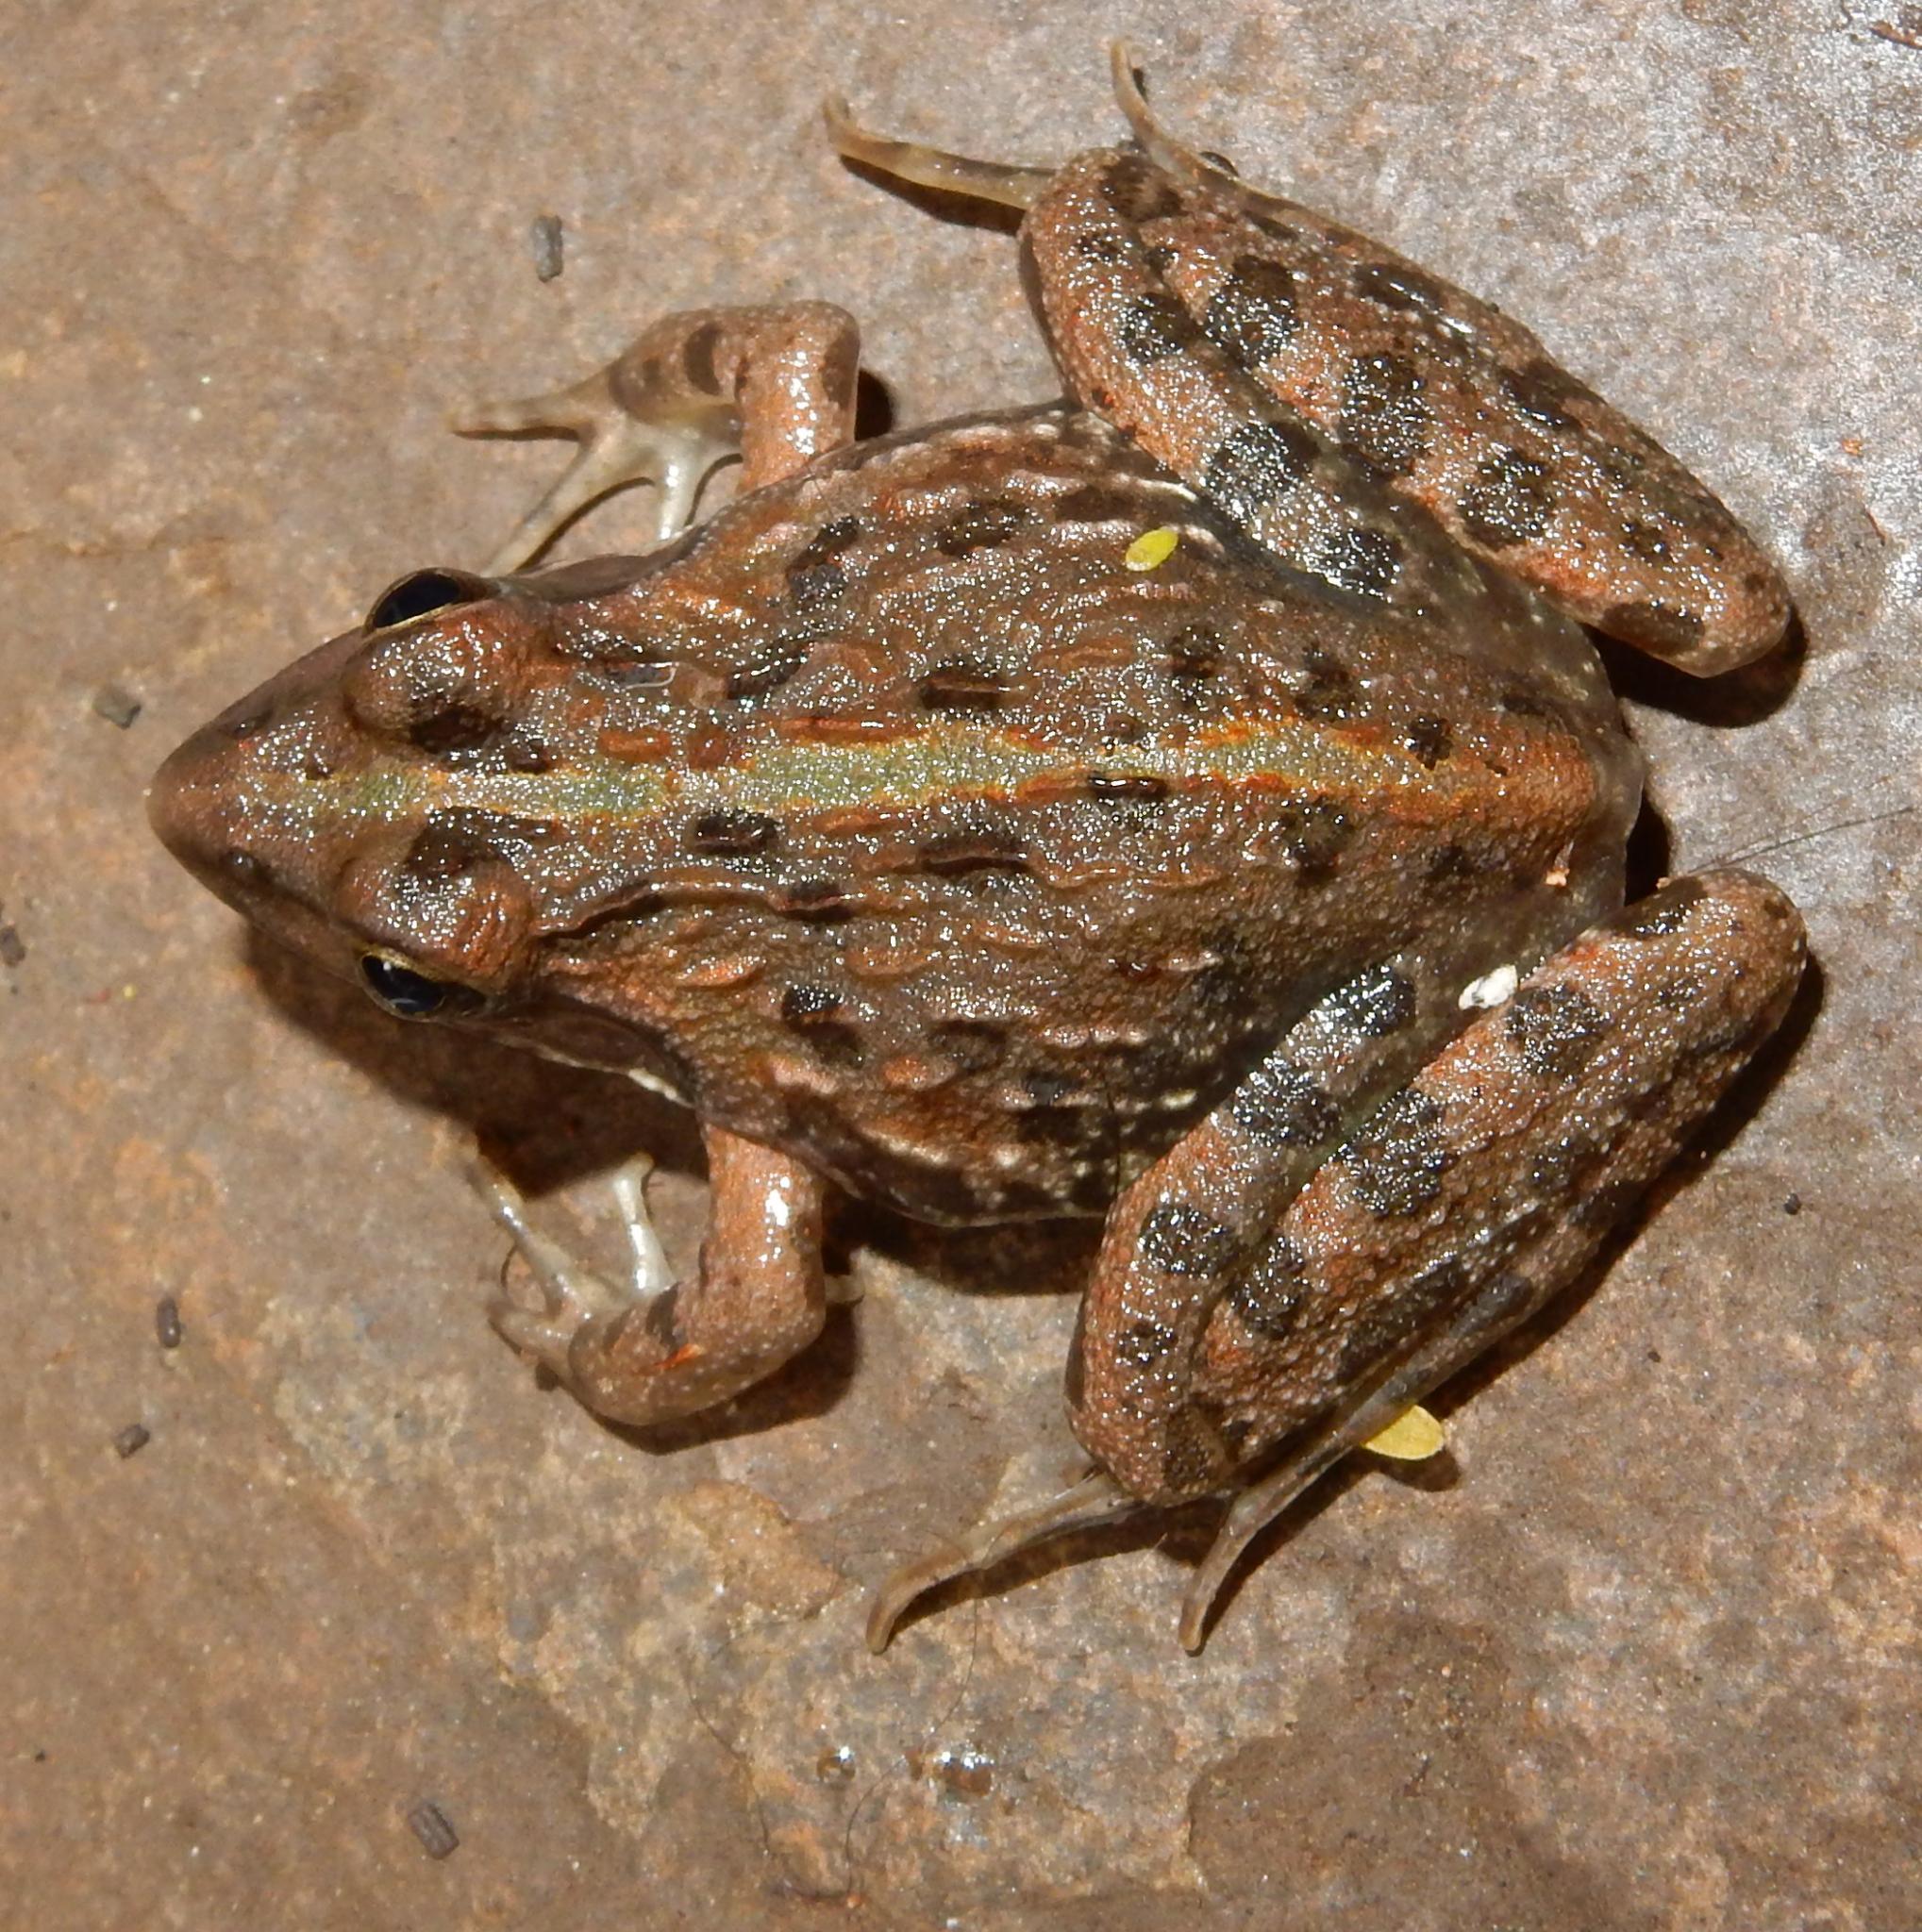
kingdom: Animalia
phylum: Chordata
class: Amphibia
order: Anura
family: Pyxicephalidae
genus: Amietia
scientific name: Amietia delalandii
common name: Delalande's river frog
